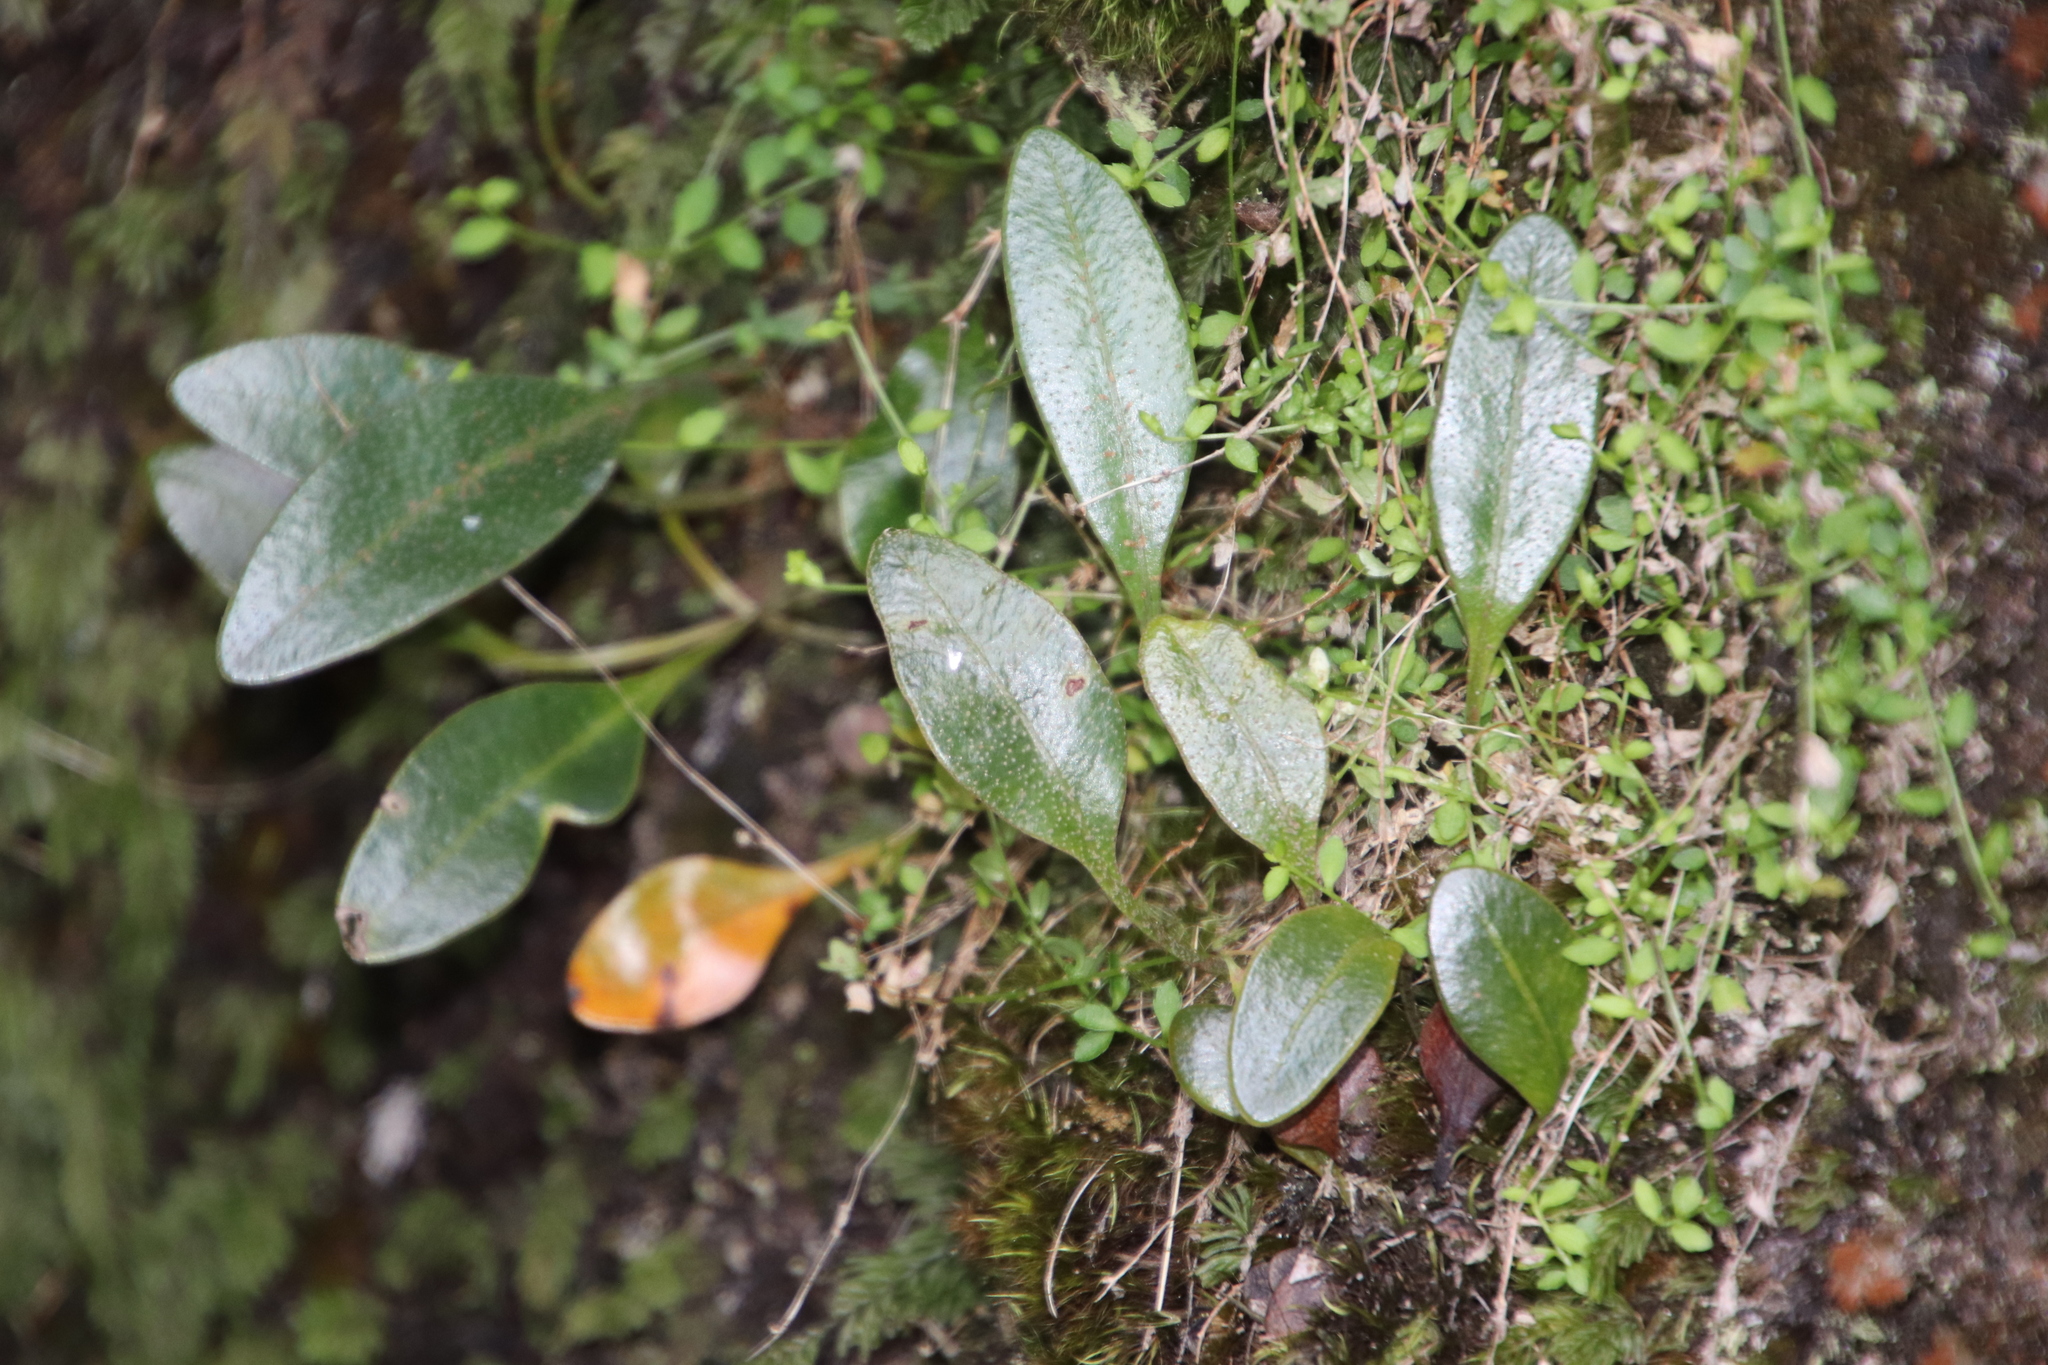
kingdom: Plantae
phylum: Tracheophyta
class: Polypodiopsida
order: Polypodiales
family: Dryopteridaceae
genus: Elaphoglossum
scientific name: Elaphoglossum conforme
